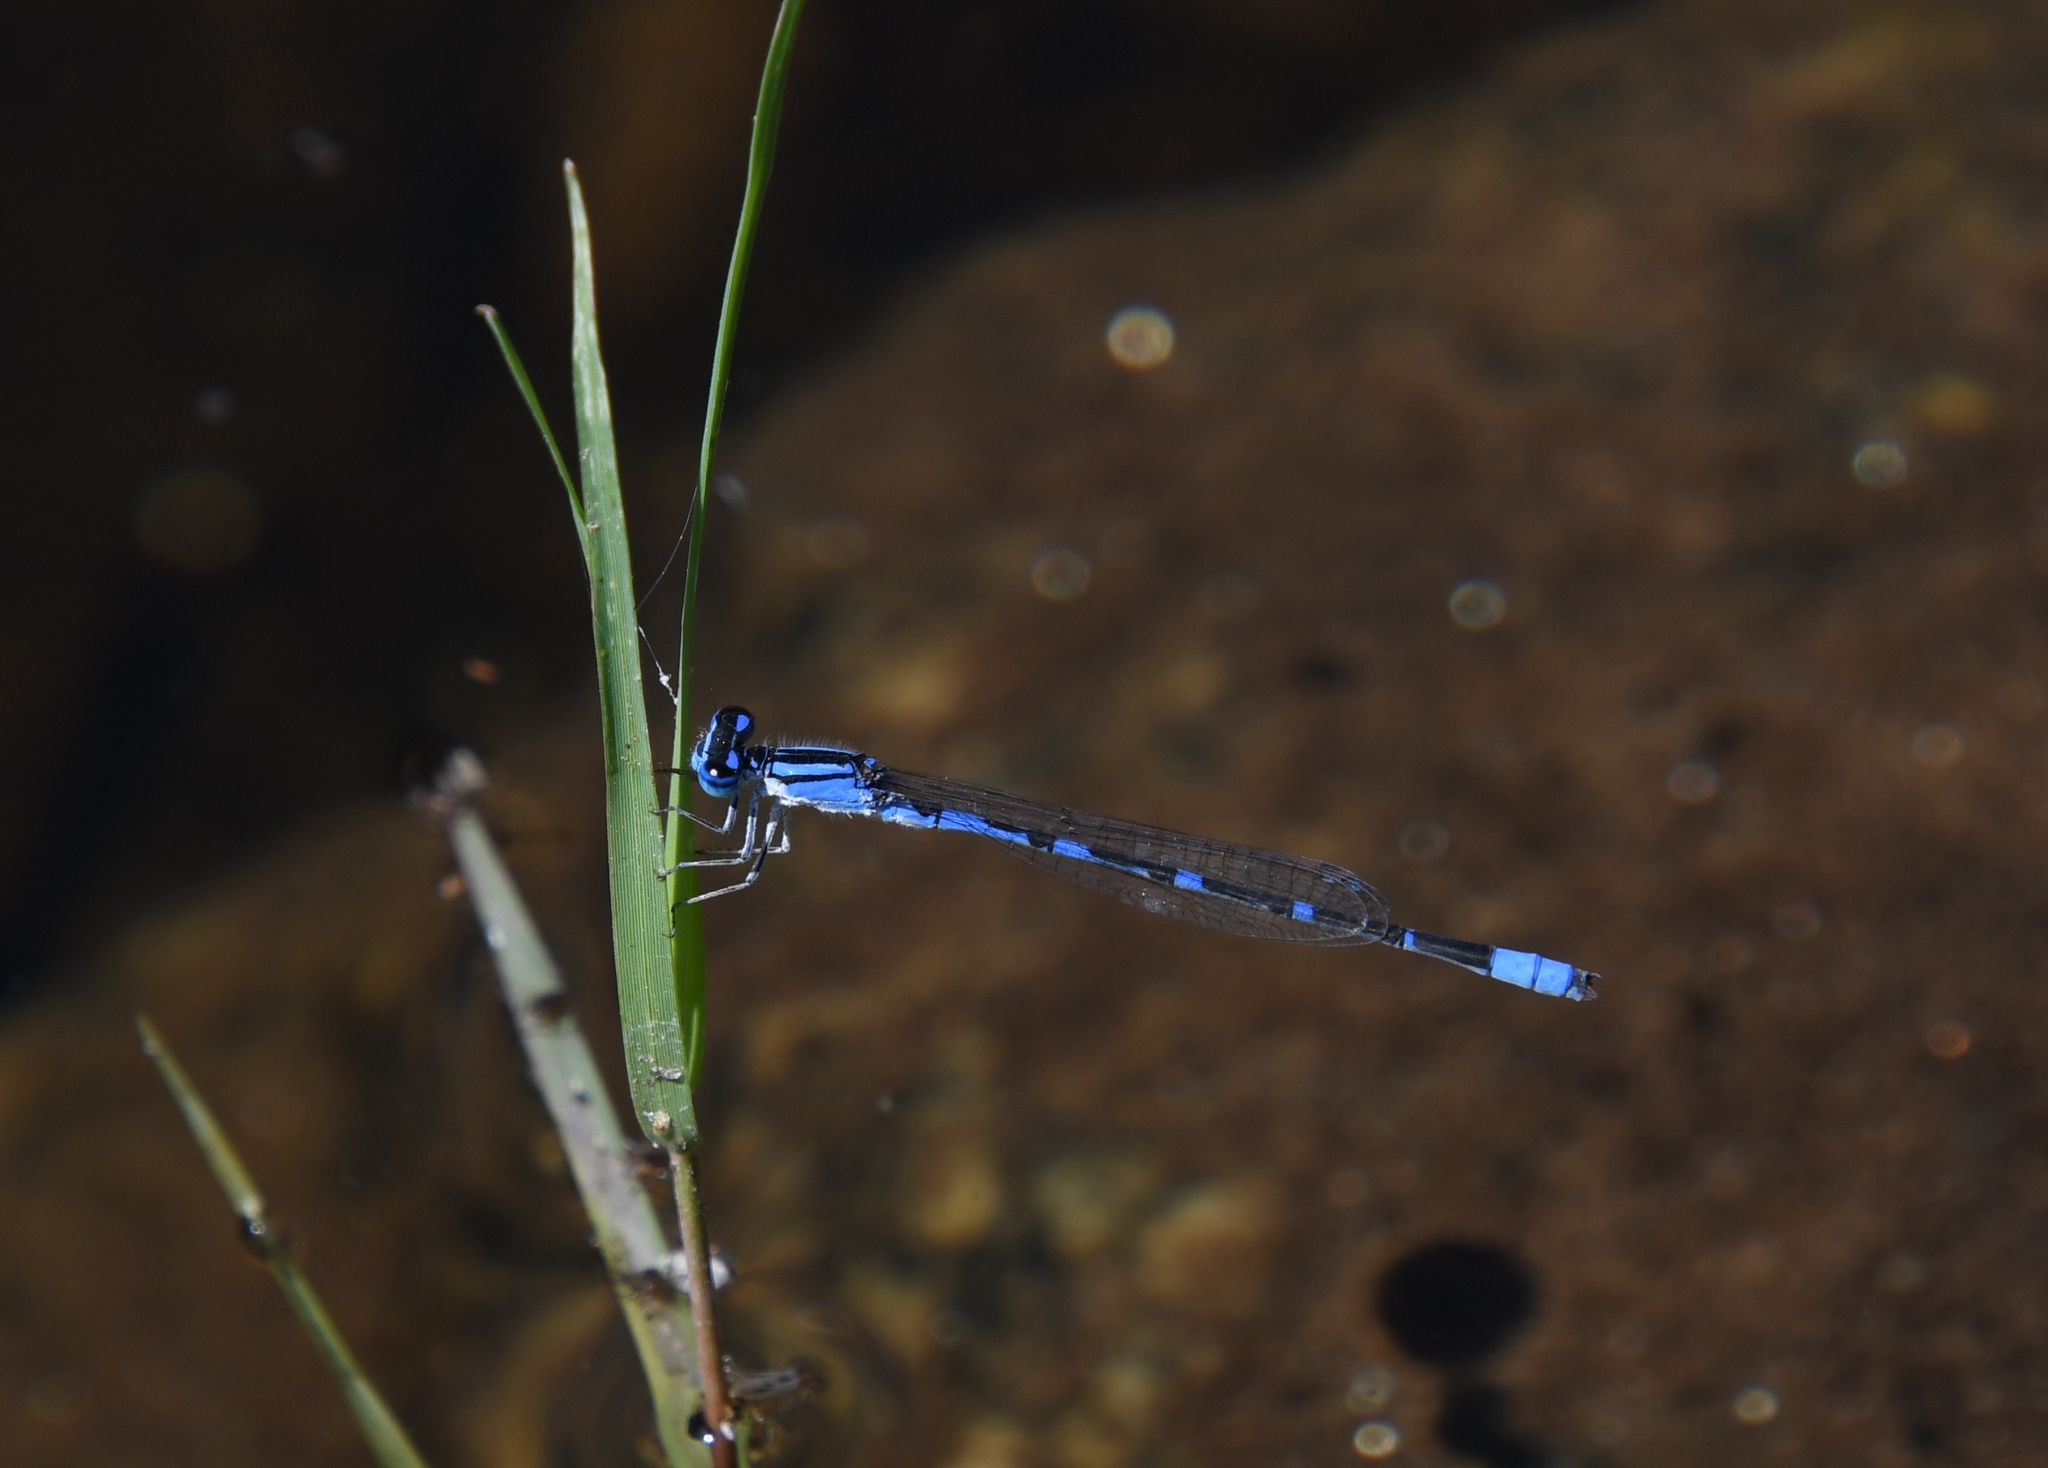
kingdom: Animalia
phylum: Arthropoda
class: Insecta
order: Odonata
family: Coenagrionidae
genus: Enallagma
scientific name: Enallagma praevarum
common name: Arroyo bluet
